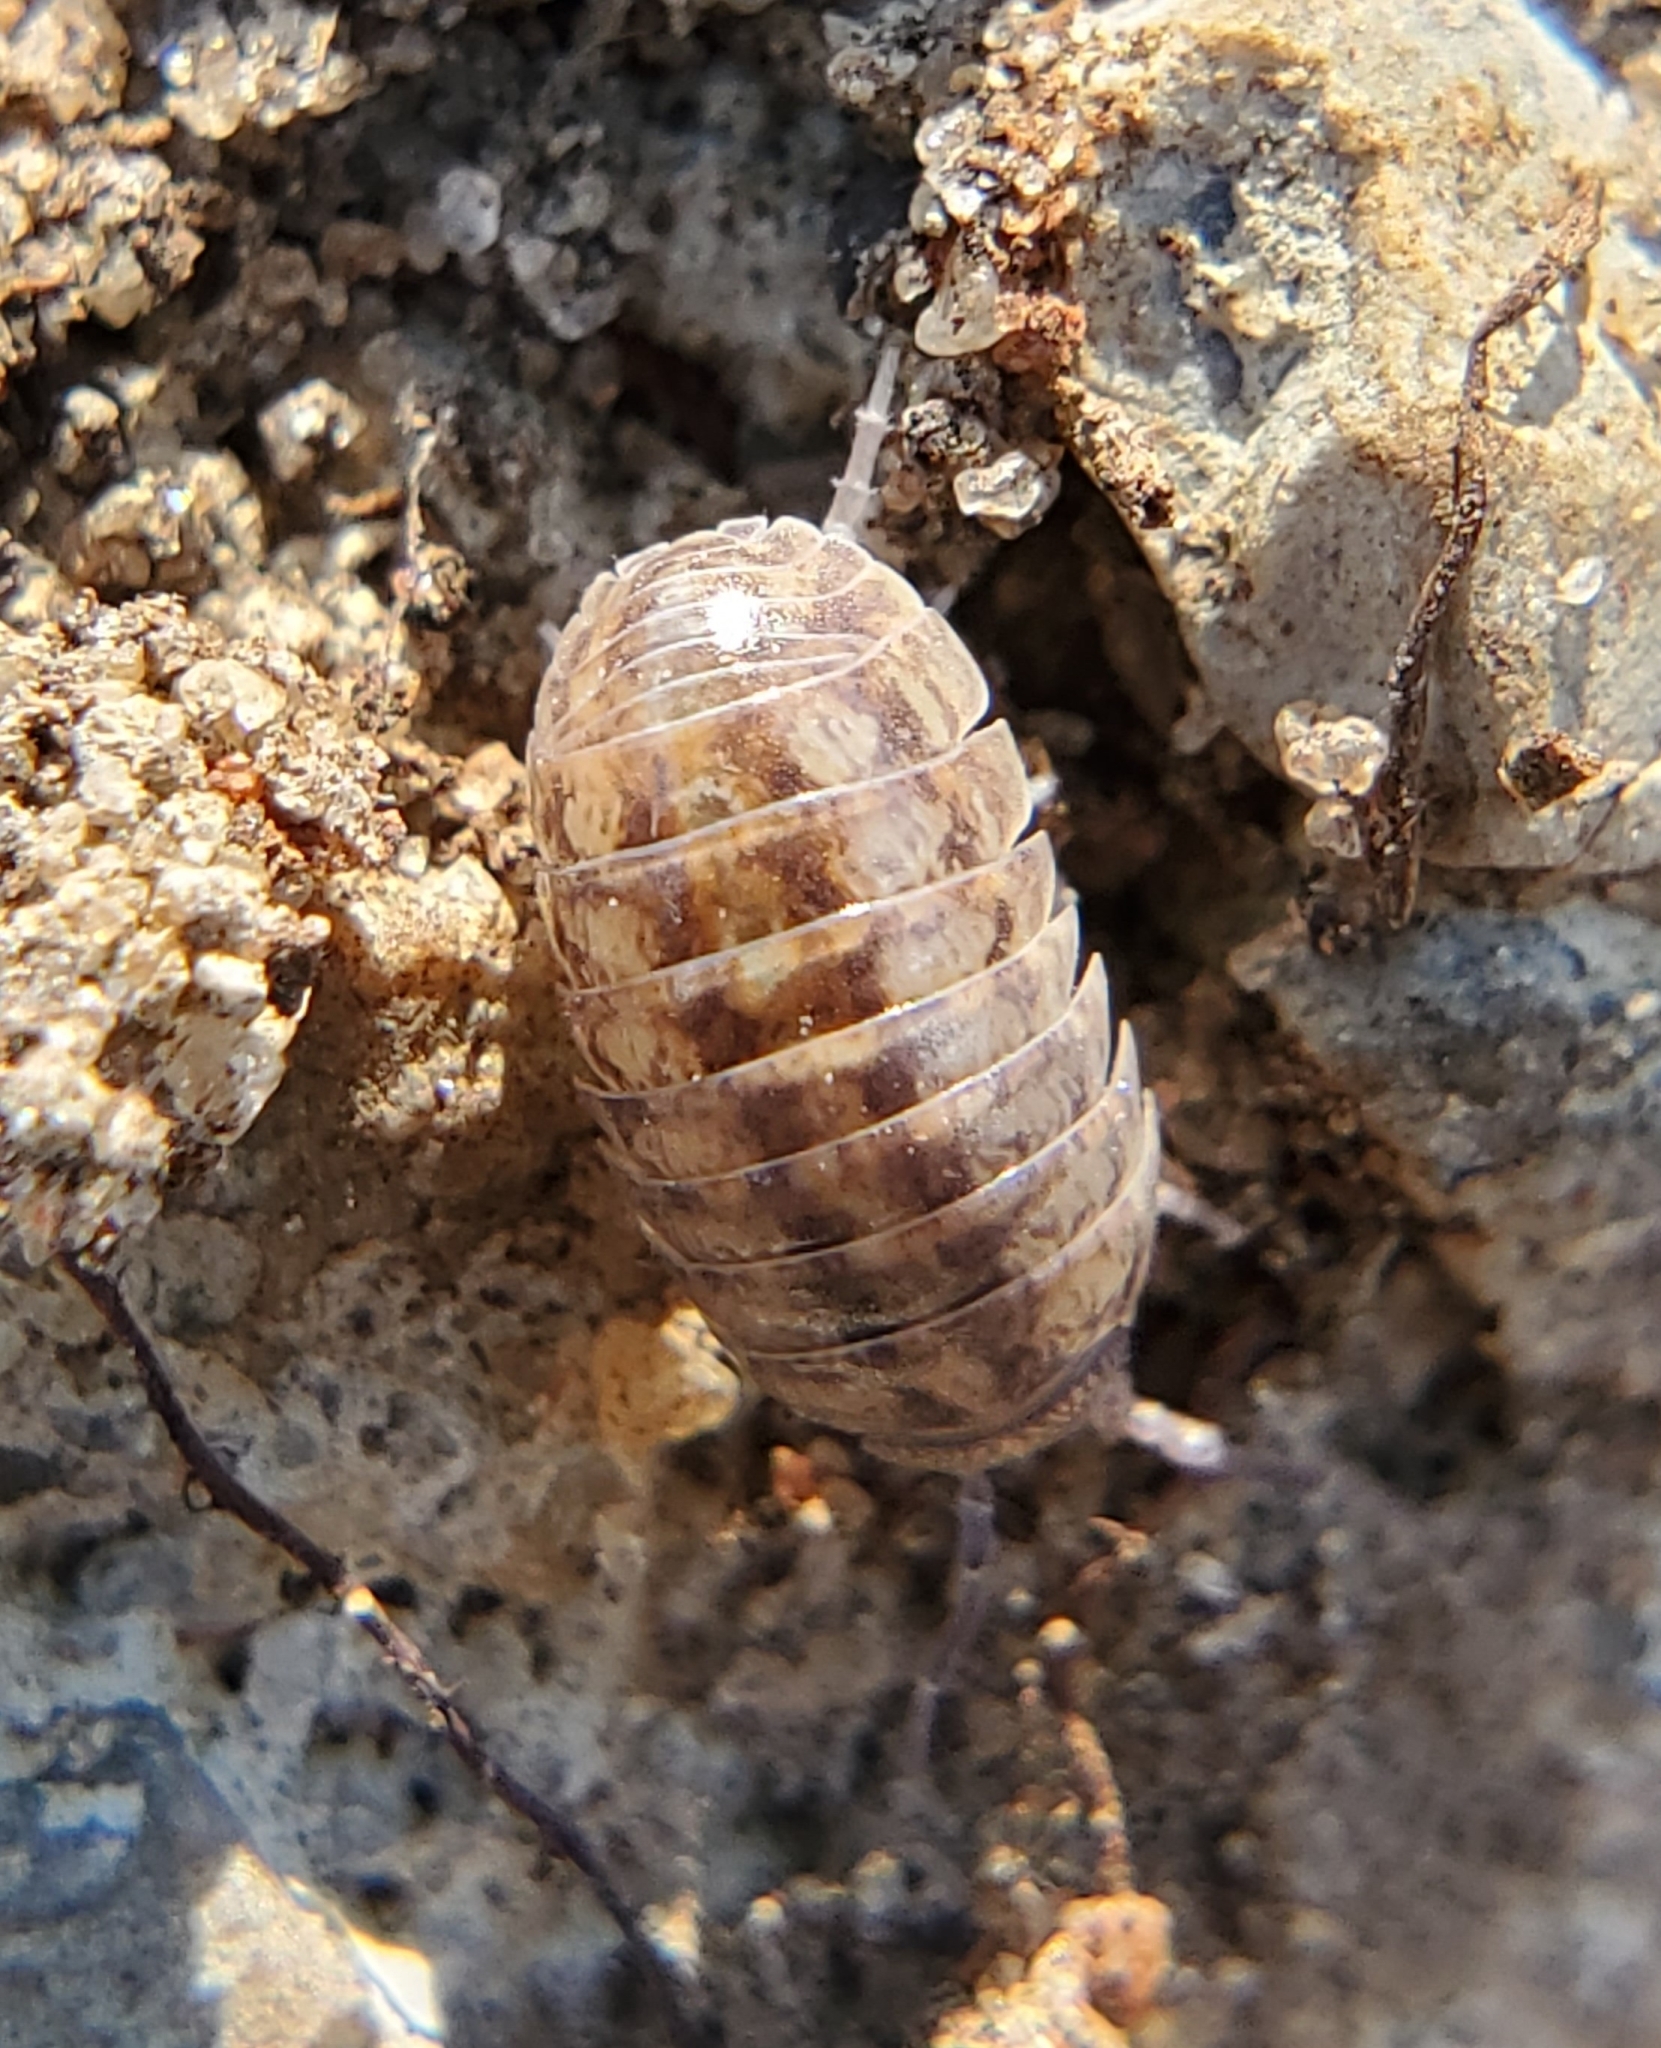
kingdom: Animalia
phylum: Arthropoda
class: Malacostraca
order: Isopoda
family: Armadillidiidae
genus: Armadillidium
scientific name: Armadillidium vulgare
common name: Common pill woodlouse
